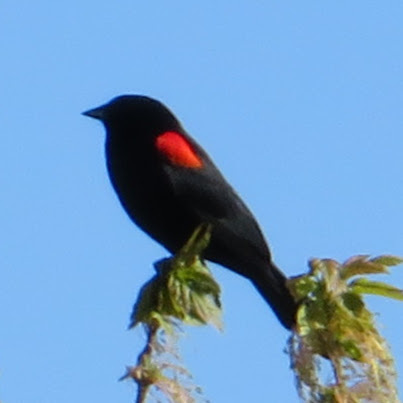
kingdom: Animalia
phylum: Chordata
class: Aves
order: Passeriformes
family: Icteridae
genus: Agelaius
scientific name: Agelaius phoeniceus
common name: Red-winged blackbird
